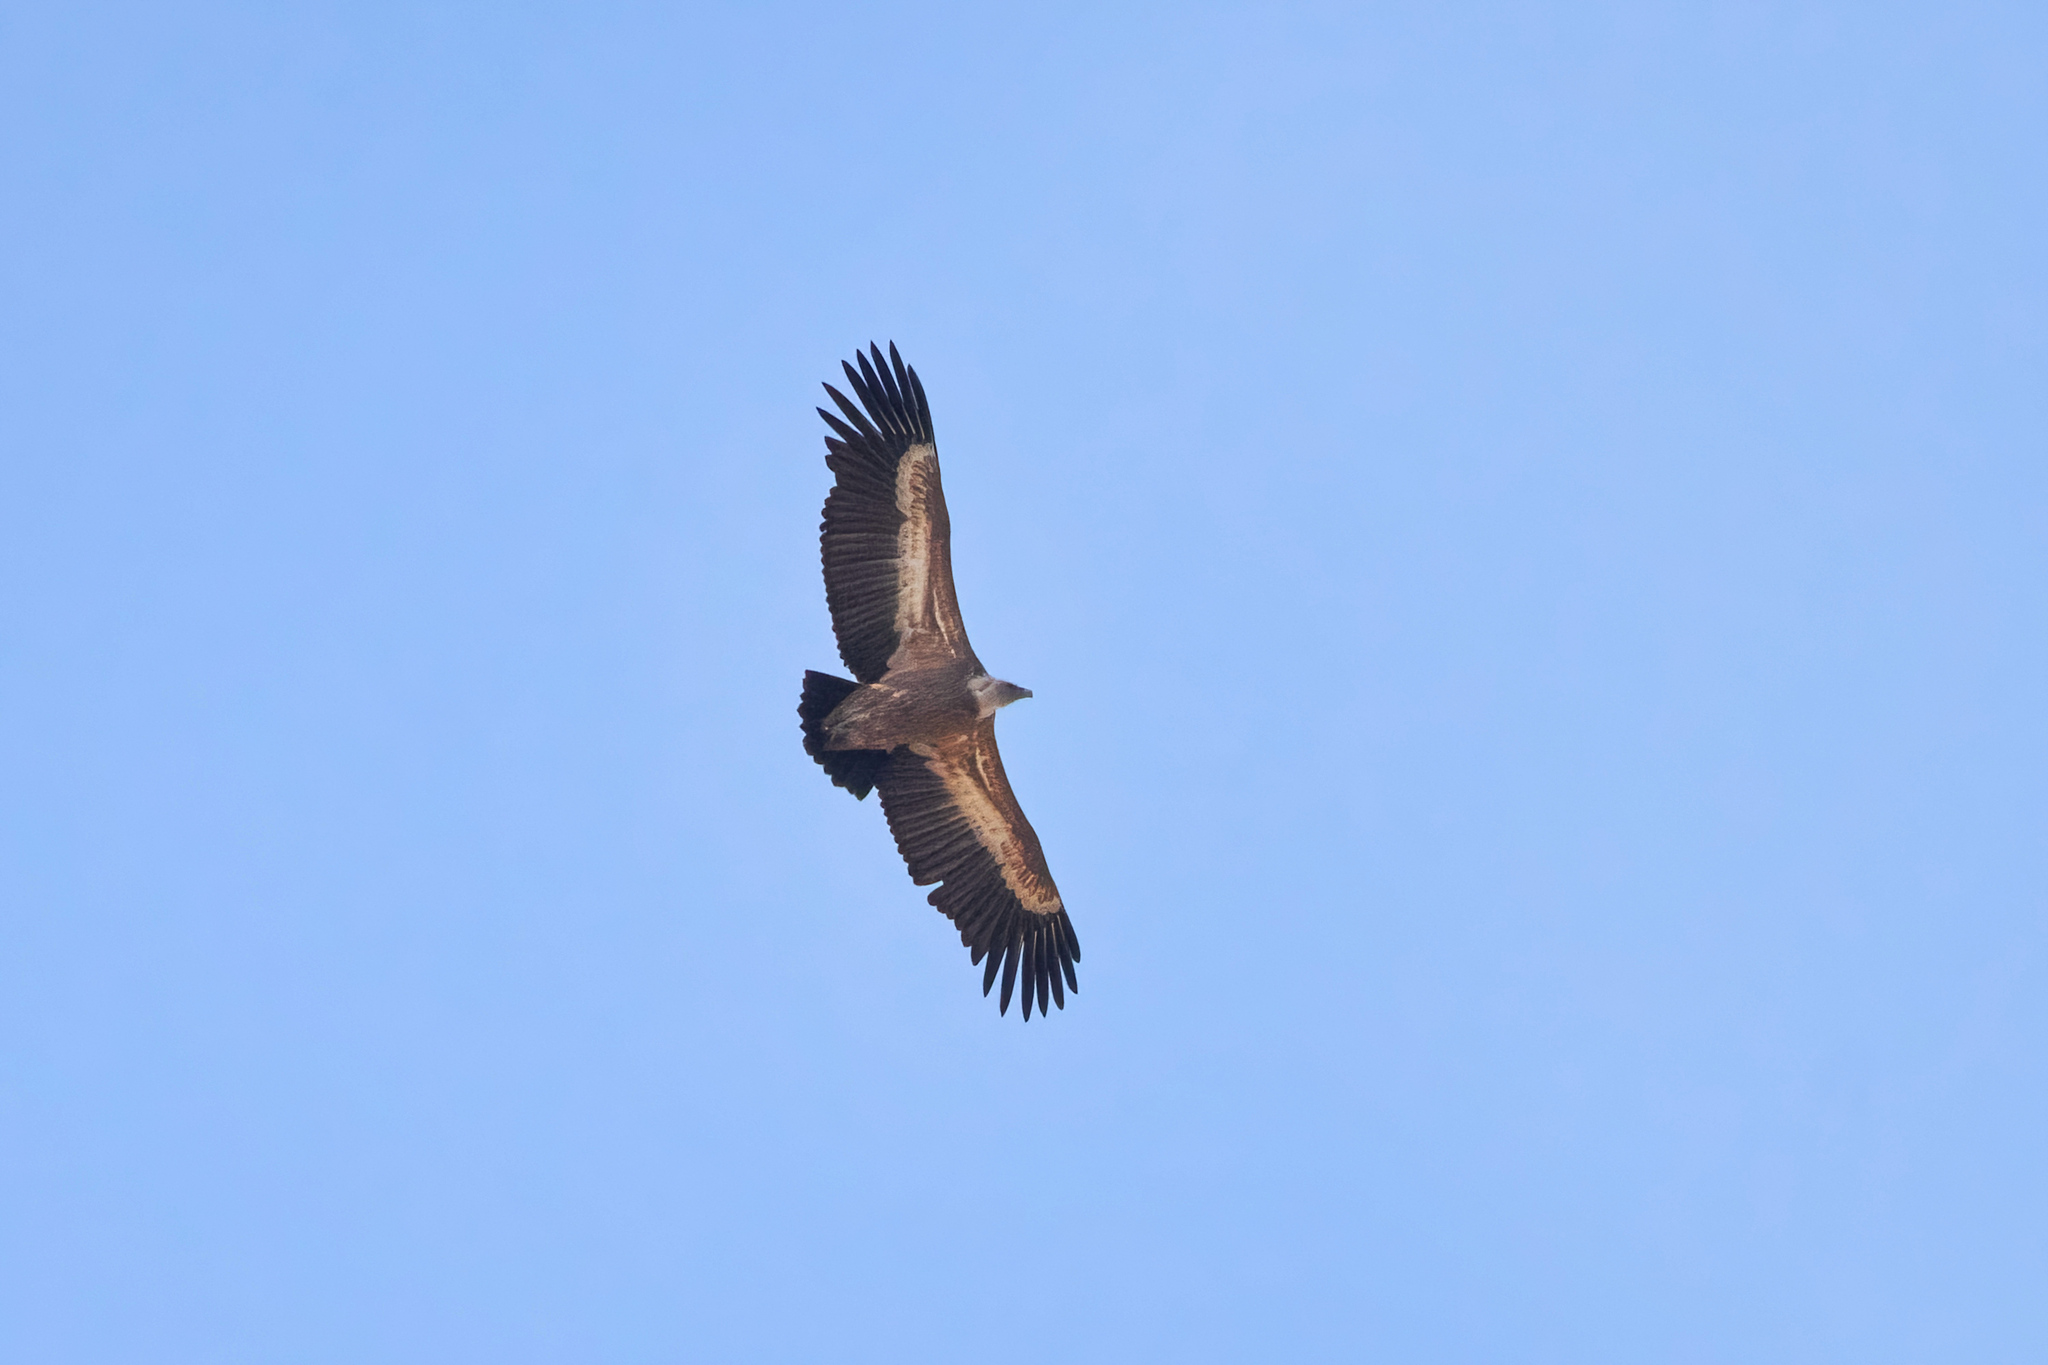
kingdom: Animalia
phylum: Chordata
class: Aves
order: Accipitriformes
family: Accipitridae
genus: Gyps
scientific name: Gyps fulvus
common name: Griffon vulture
